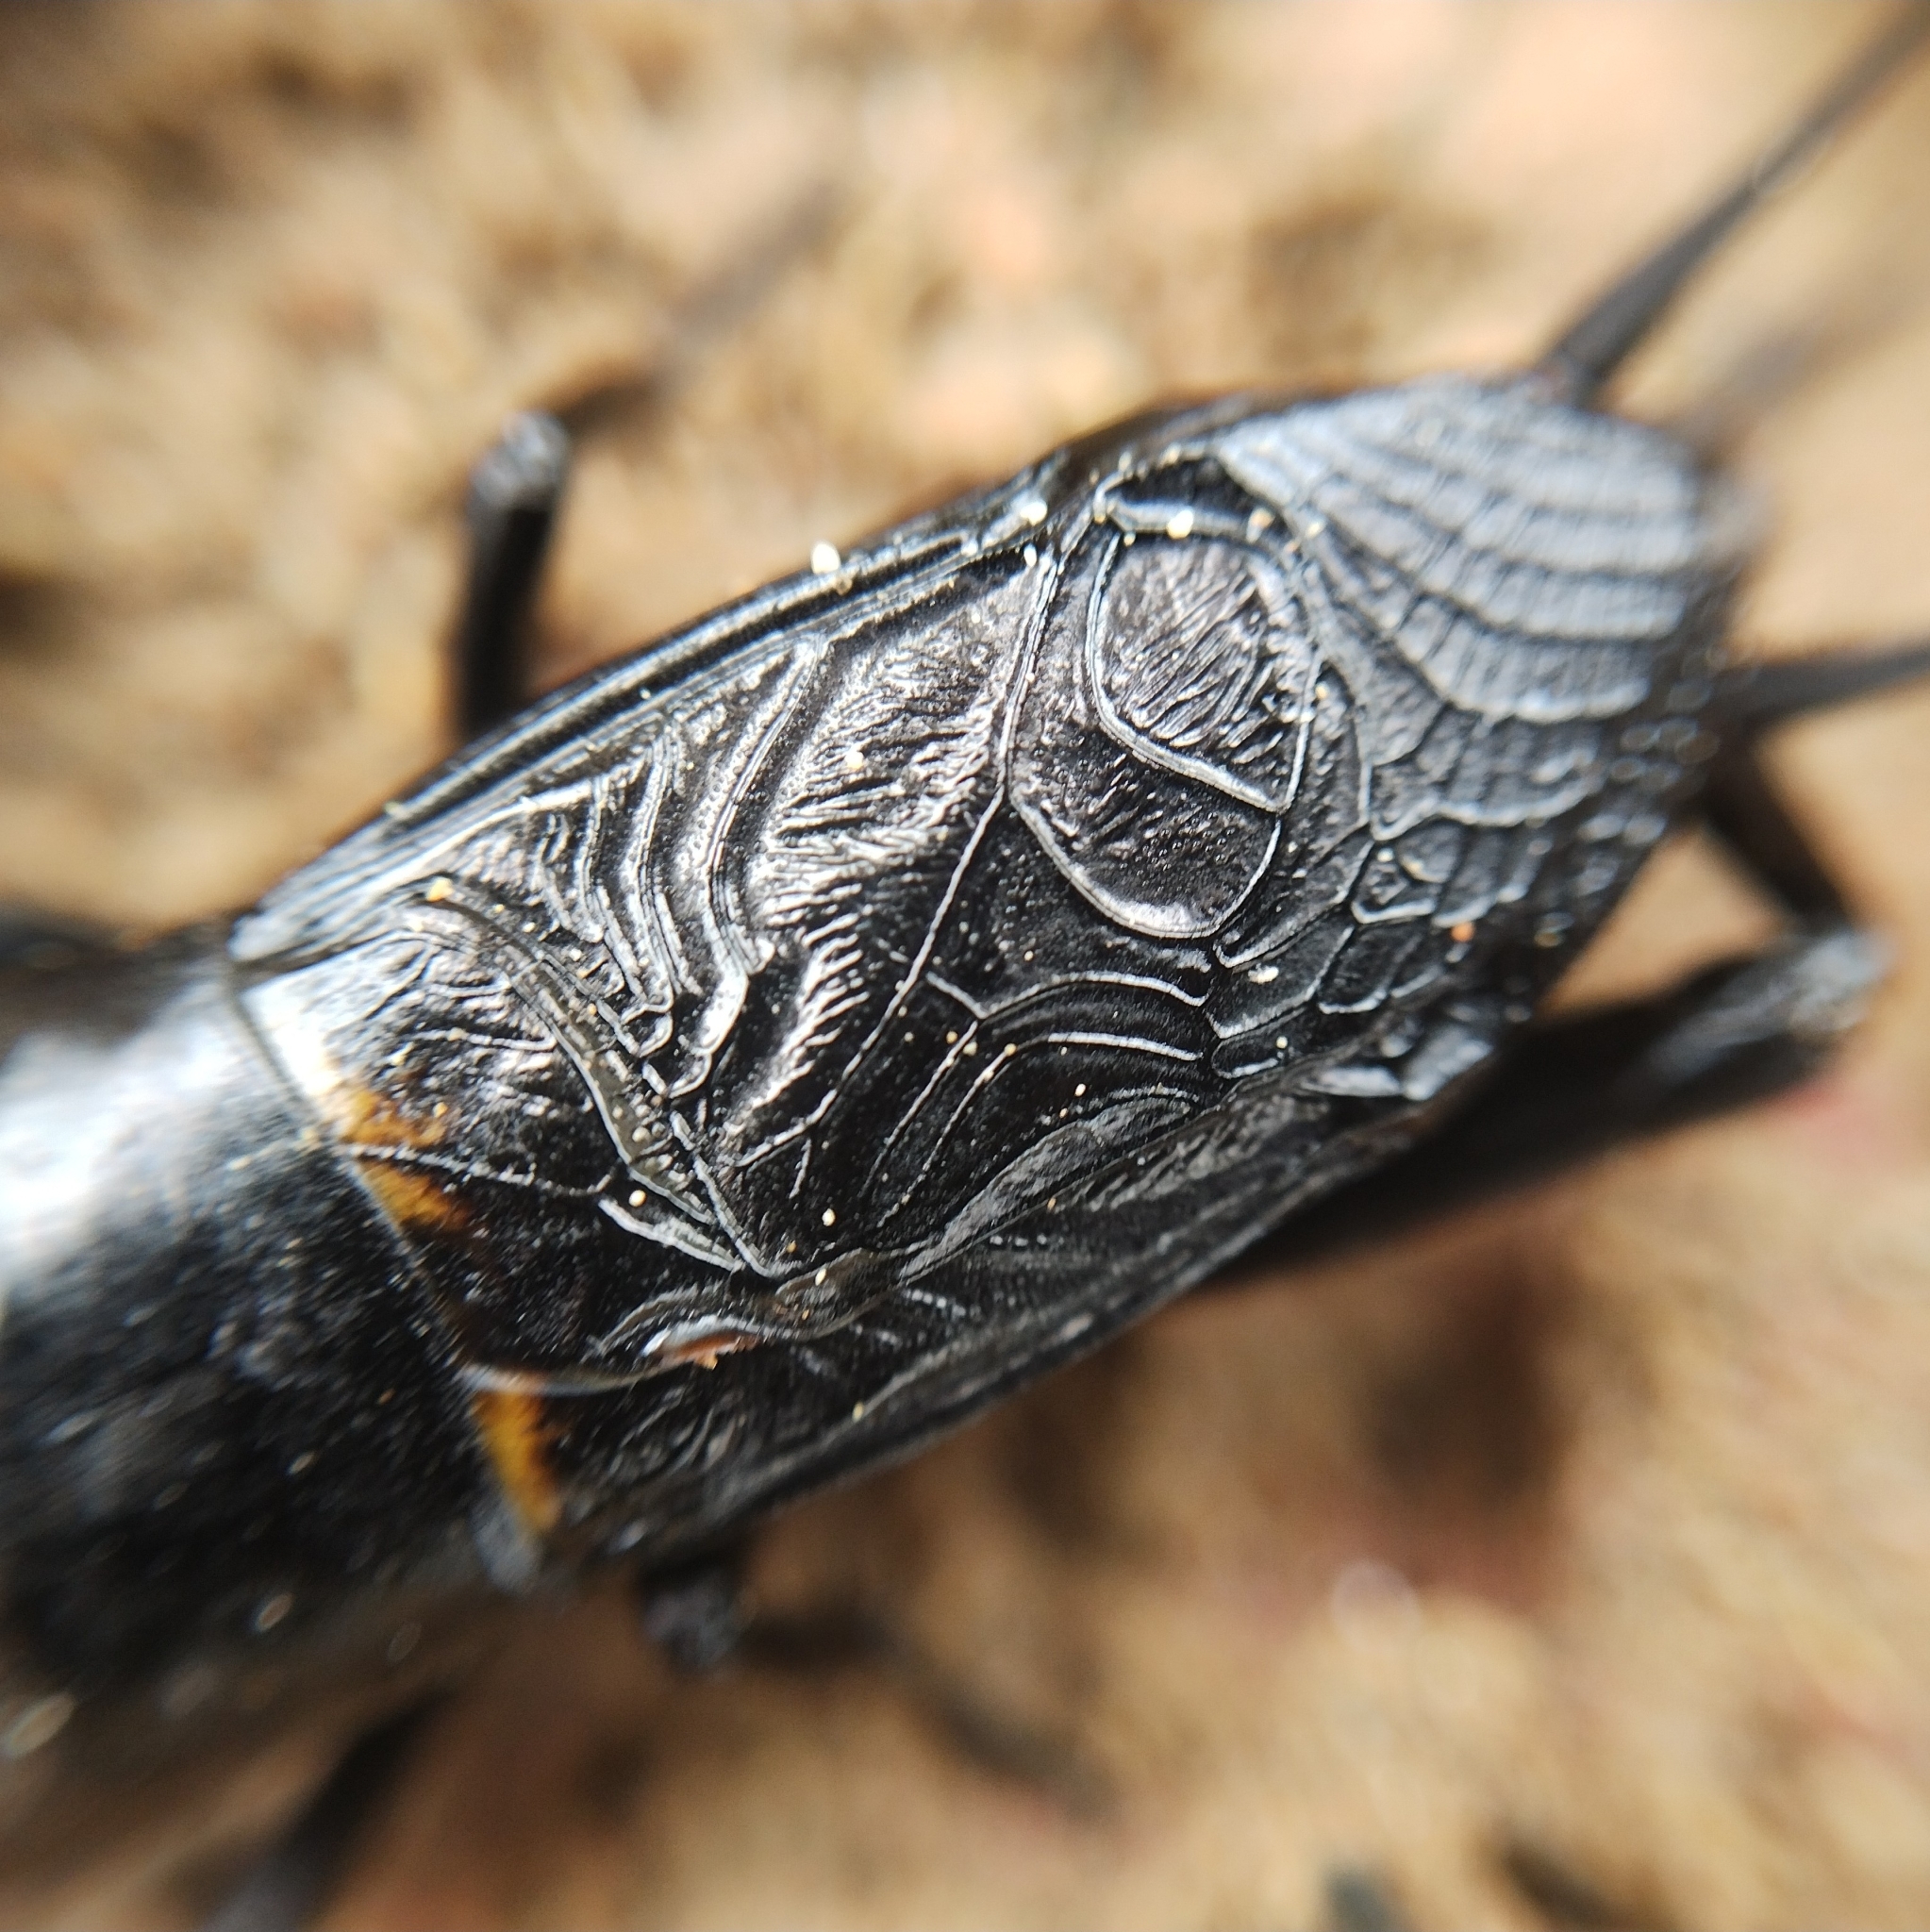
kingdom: Animalia
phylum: Arthropoda
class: Insecta
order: Orthoptera
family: Gryllidae
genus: Gryllus
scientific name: Gryllus campestris
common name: Field cricket
